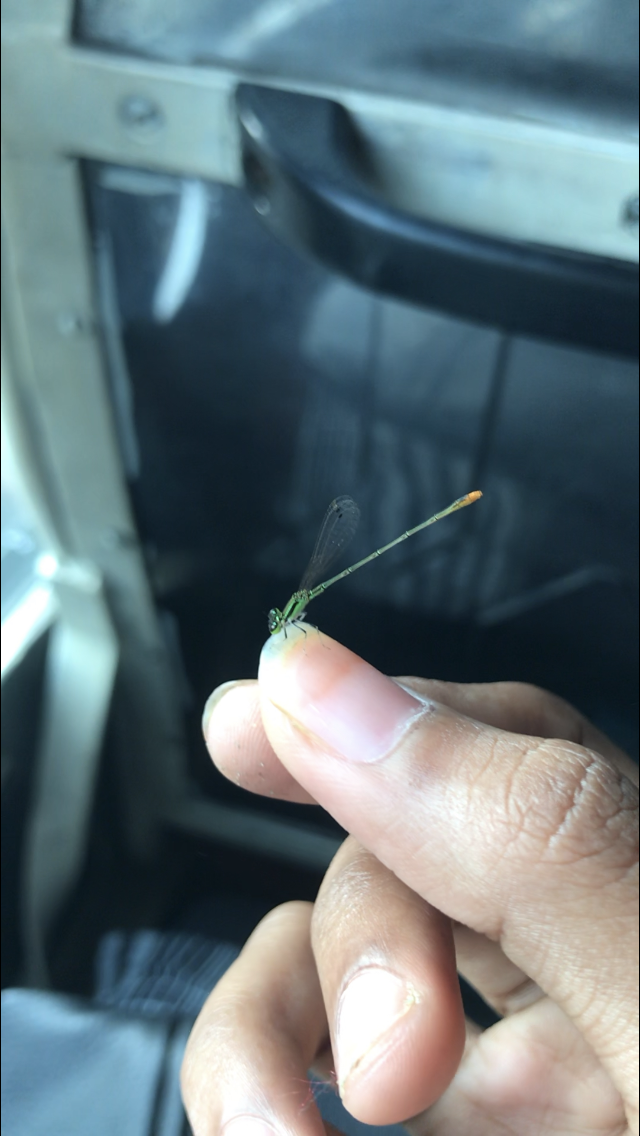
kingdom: Animalia
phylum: Arthropoda
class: Insecta
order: Odonata
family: Coenagrionidae
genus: Agriocnemis
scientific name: Agriocnemis pygmaea
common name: Pygmy wisp
